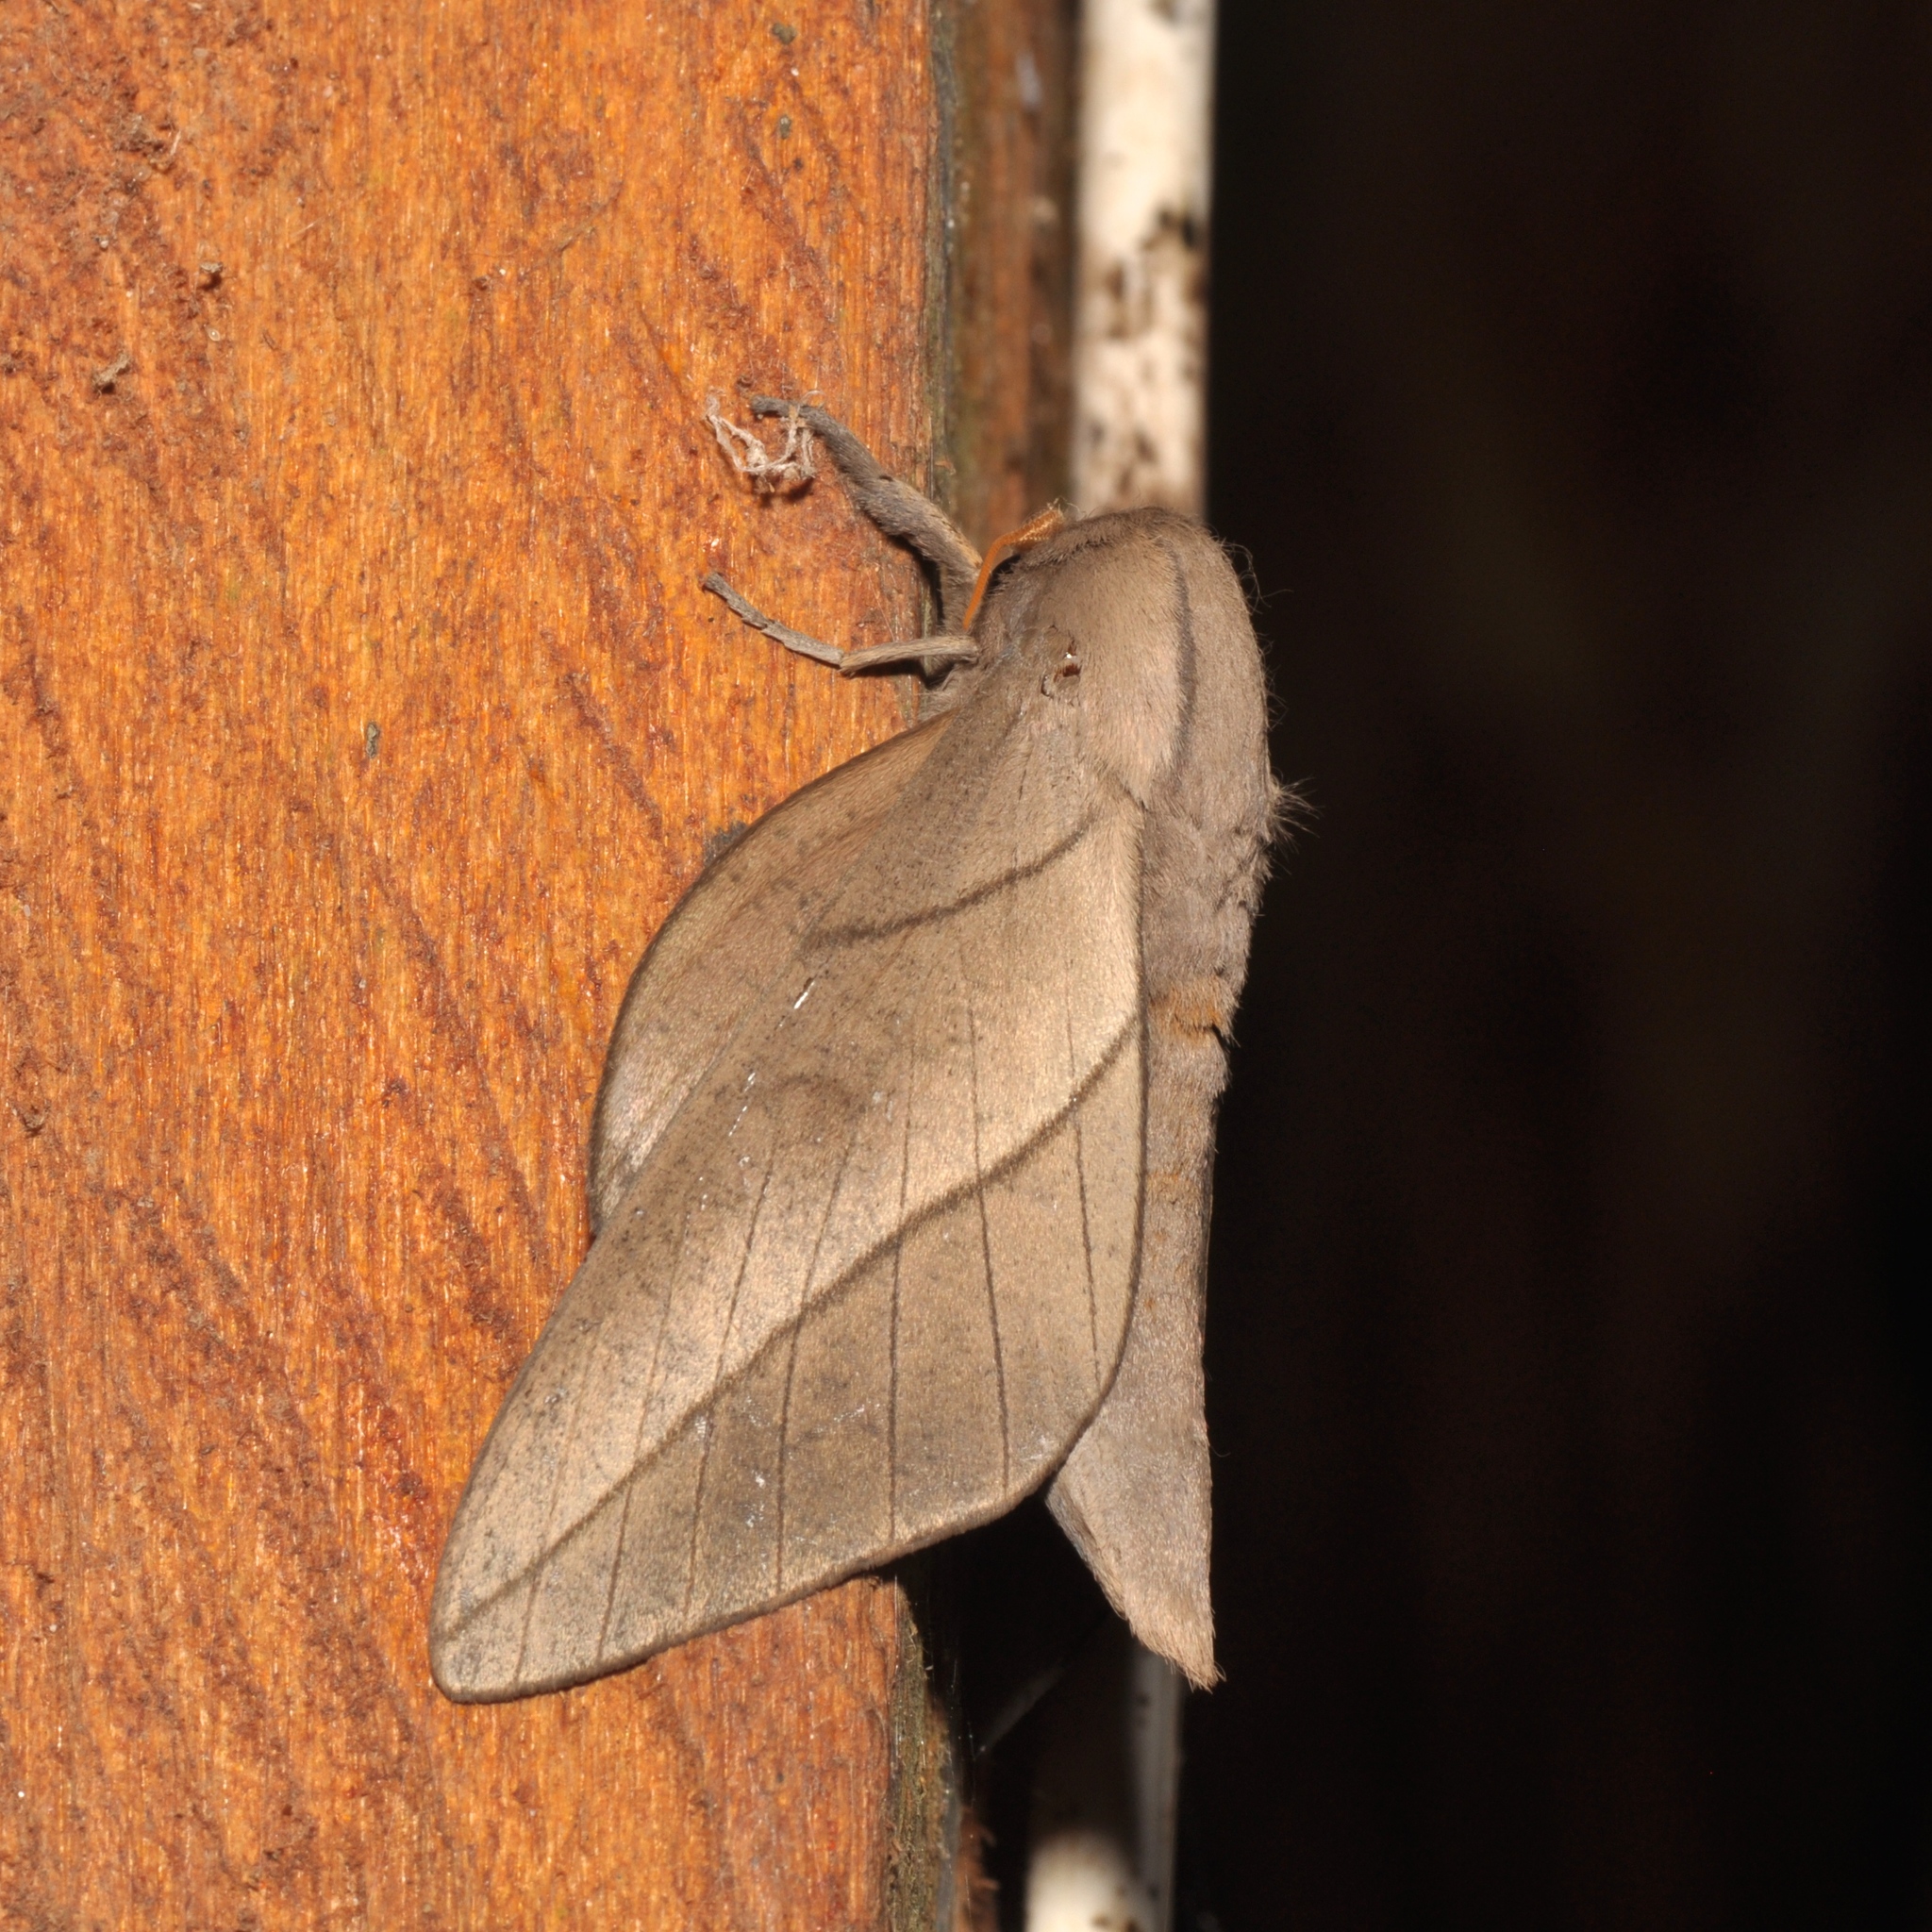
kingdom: Animalia
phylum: Arthropoda
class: Insecta
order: Lepidoptera
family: Saturniidae
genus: Citioica
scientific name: Citioica anthonilis
